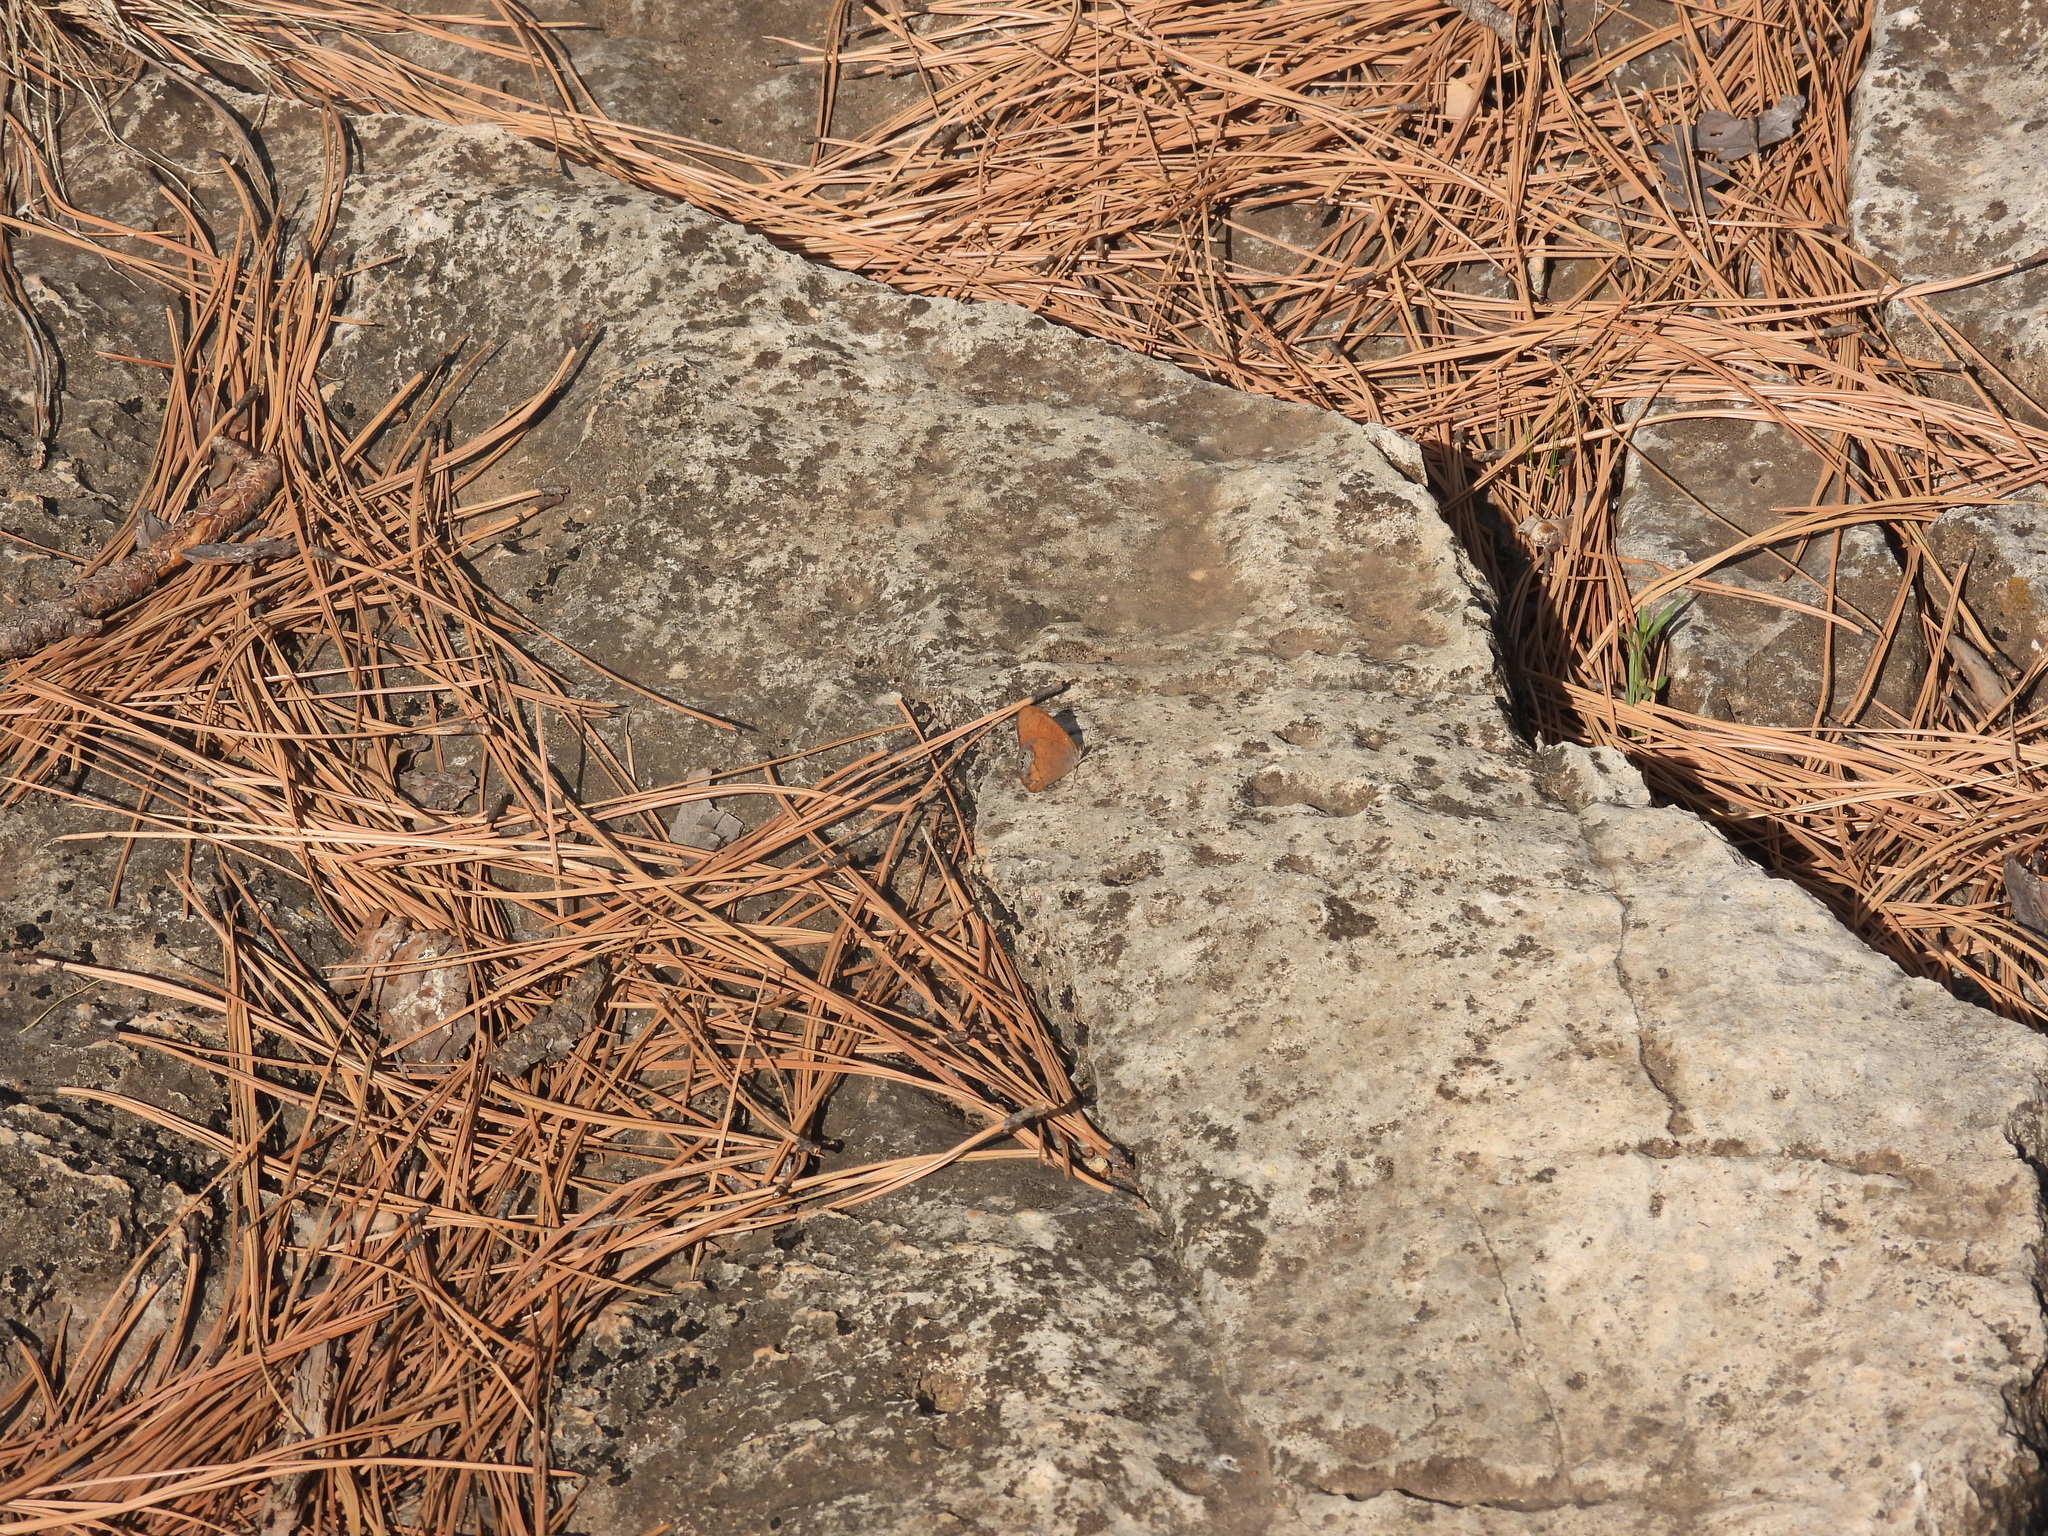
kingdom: Animalia
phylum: Arthropoda
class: Insecta
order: Lepidoptera
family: Nymphalidae
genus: Euptychia
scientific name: Euptychia Cyllopsis pertepida
